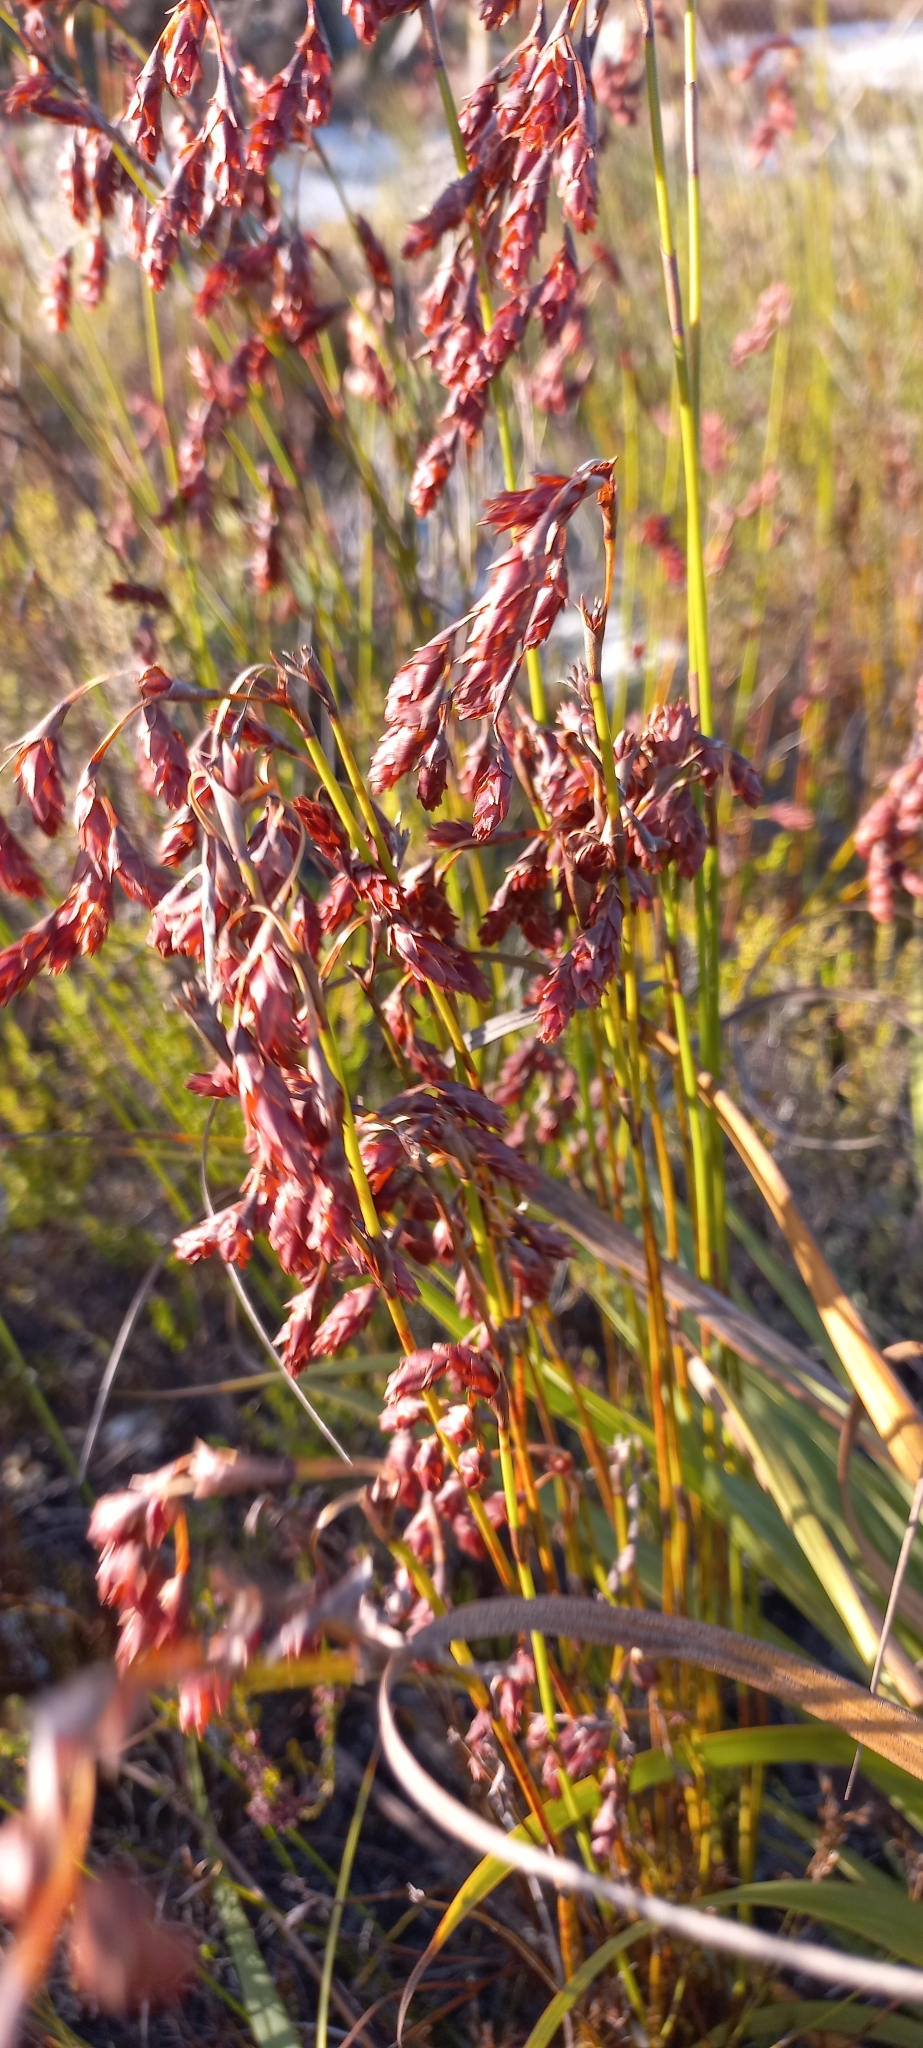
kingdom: Plantae
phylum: Tracheophyta
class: Liliopsida
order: Poales
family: Restionaceae
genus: Restio
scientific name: Restio bifarius
